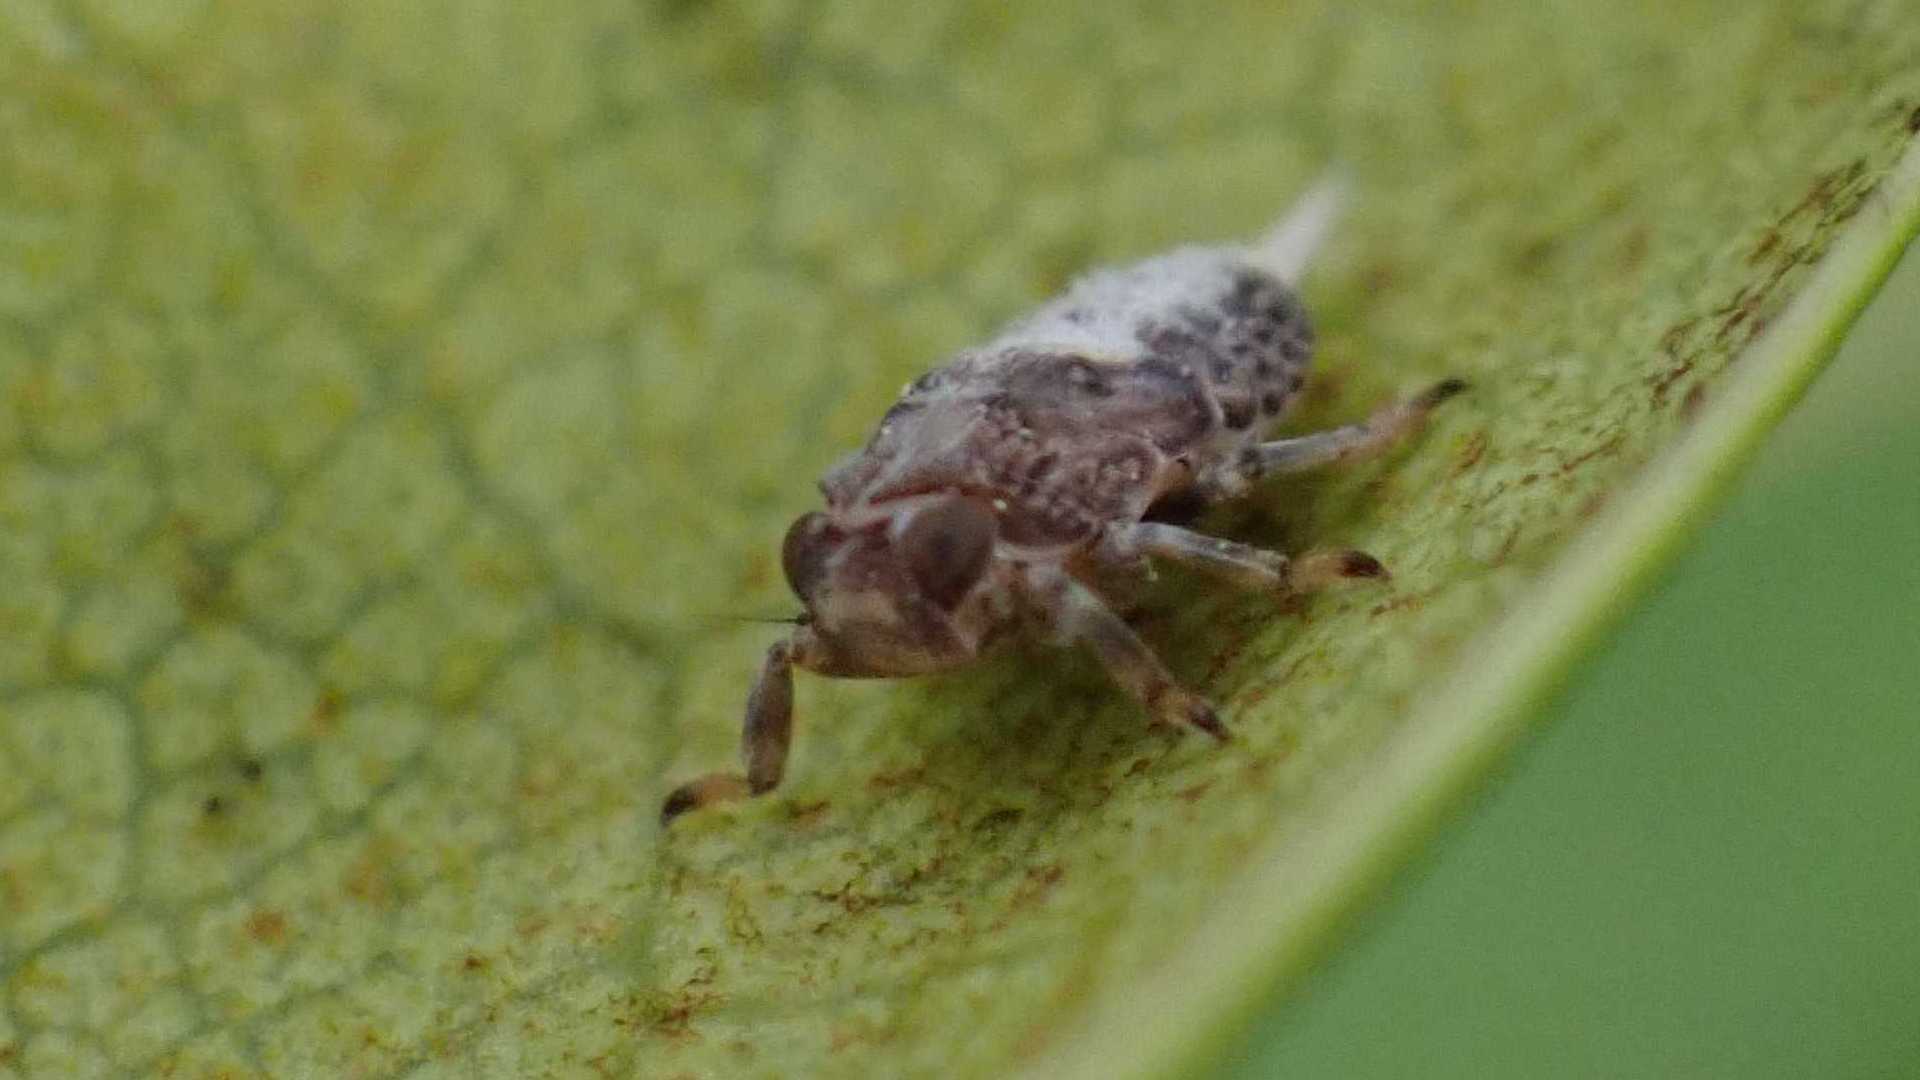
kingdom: Animalia
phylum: Arthropoda
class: Insecta
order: Hemiptera
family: Issidae
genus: Issus
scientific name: Issus coleoptratus
